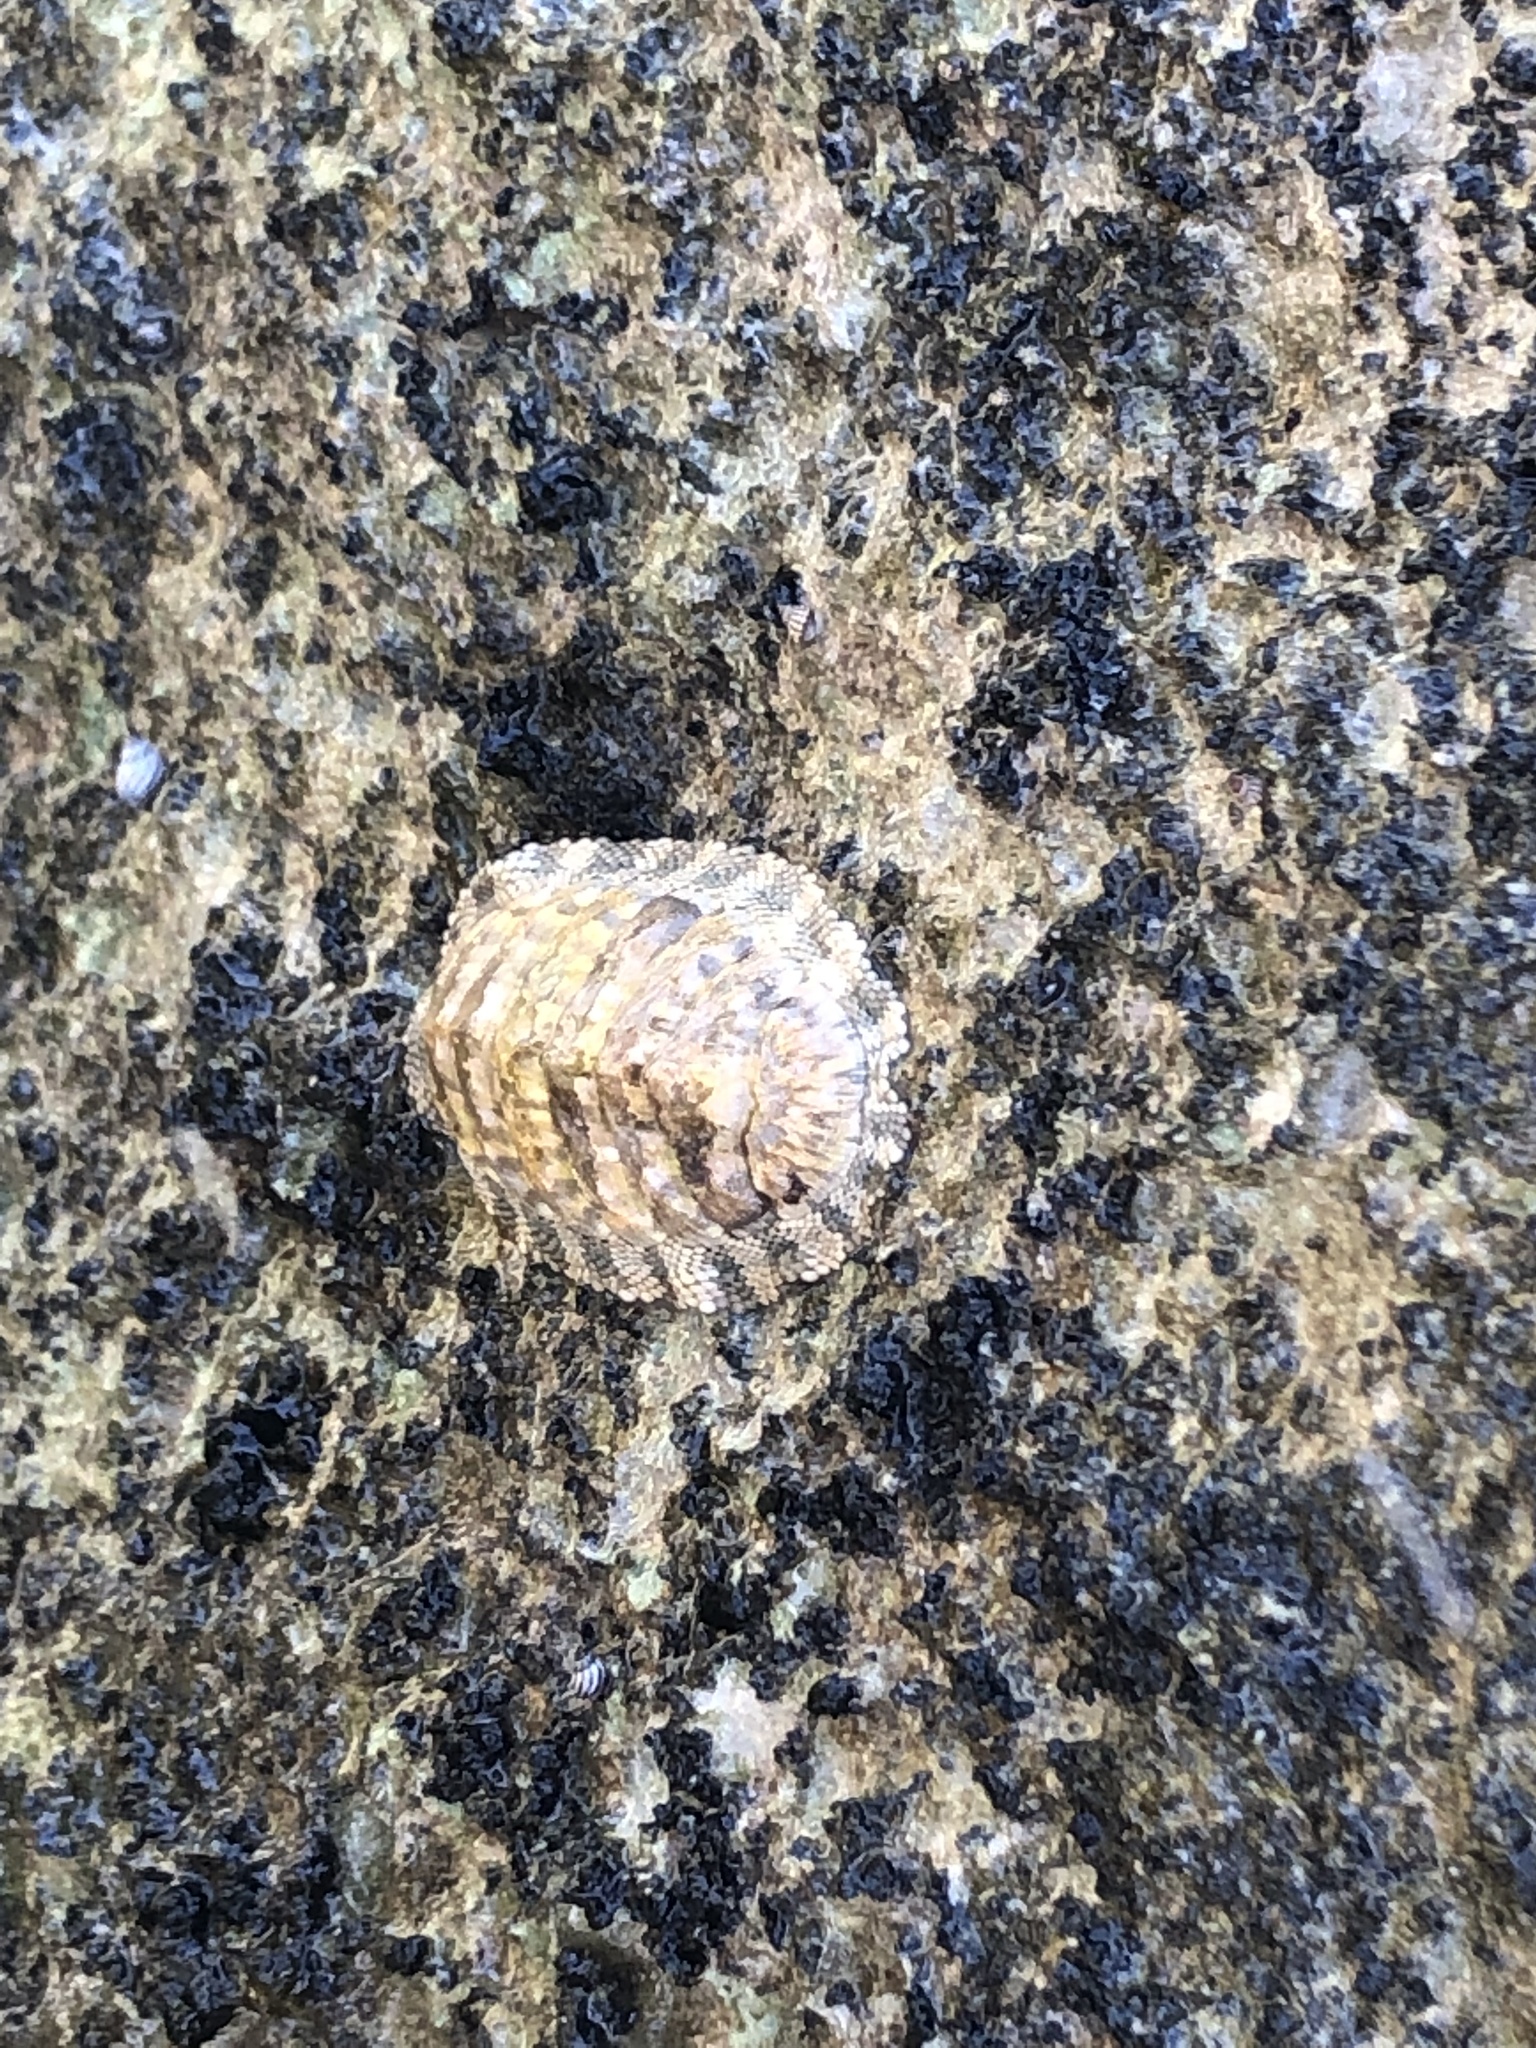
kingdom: Animalia
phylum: Mollusca
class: Polyplacophora
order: Chitonida
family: Chitonidae
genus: Chiton
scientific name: Chiton squamosus
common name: Squamose chiton
